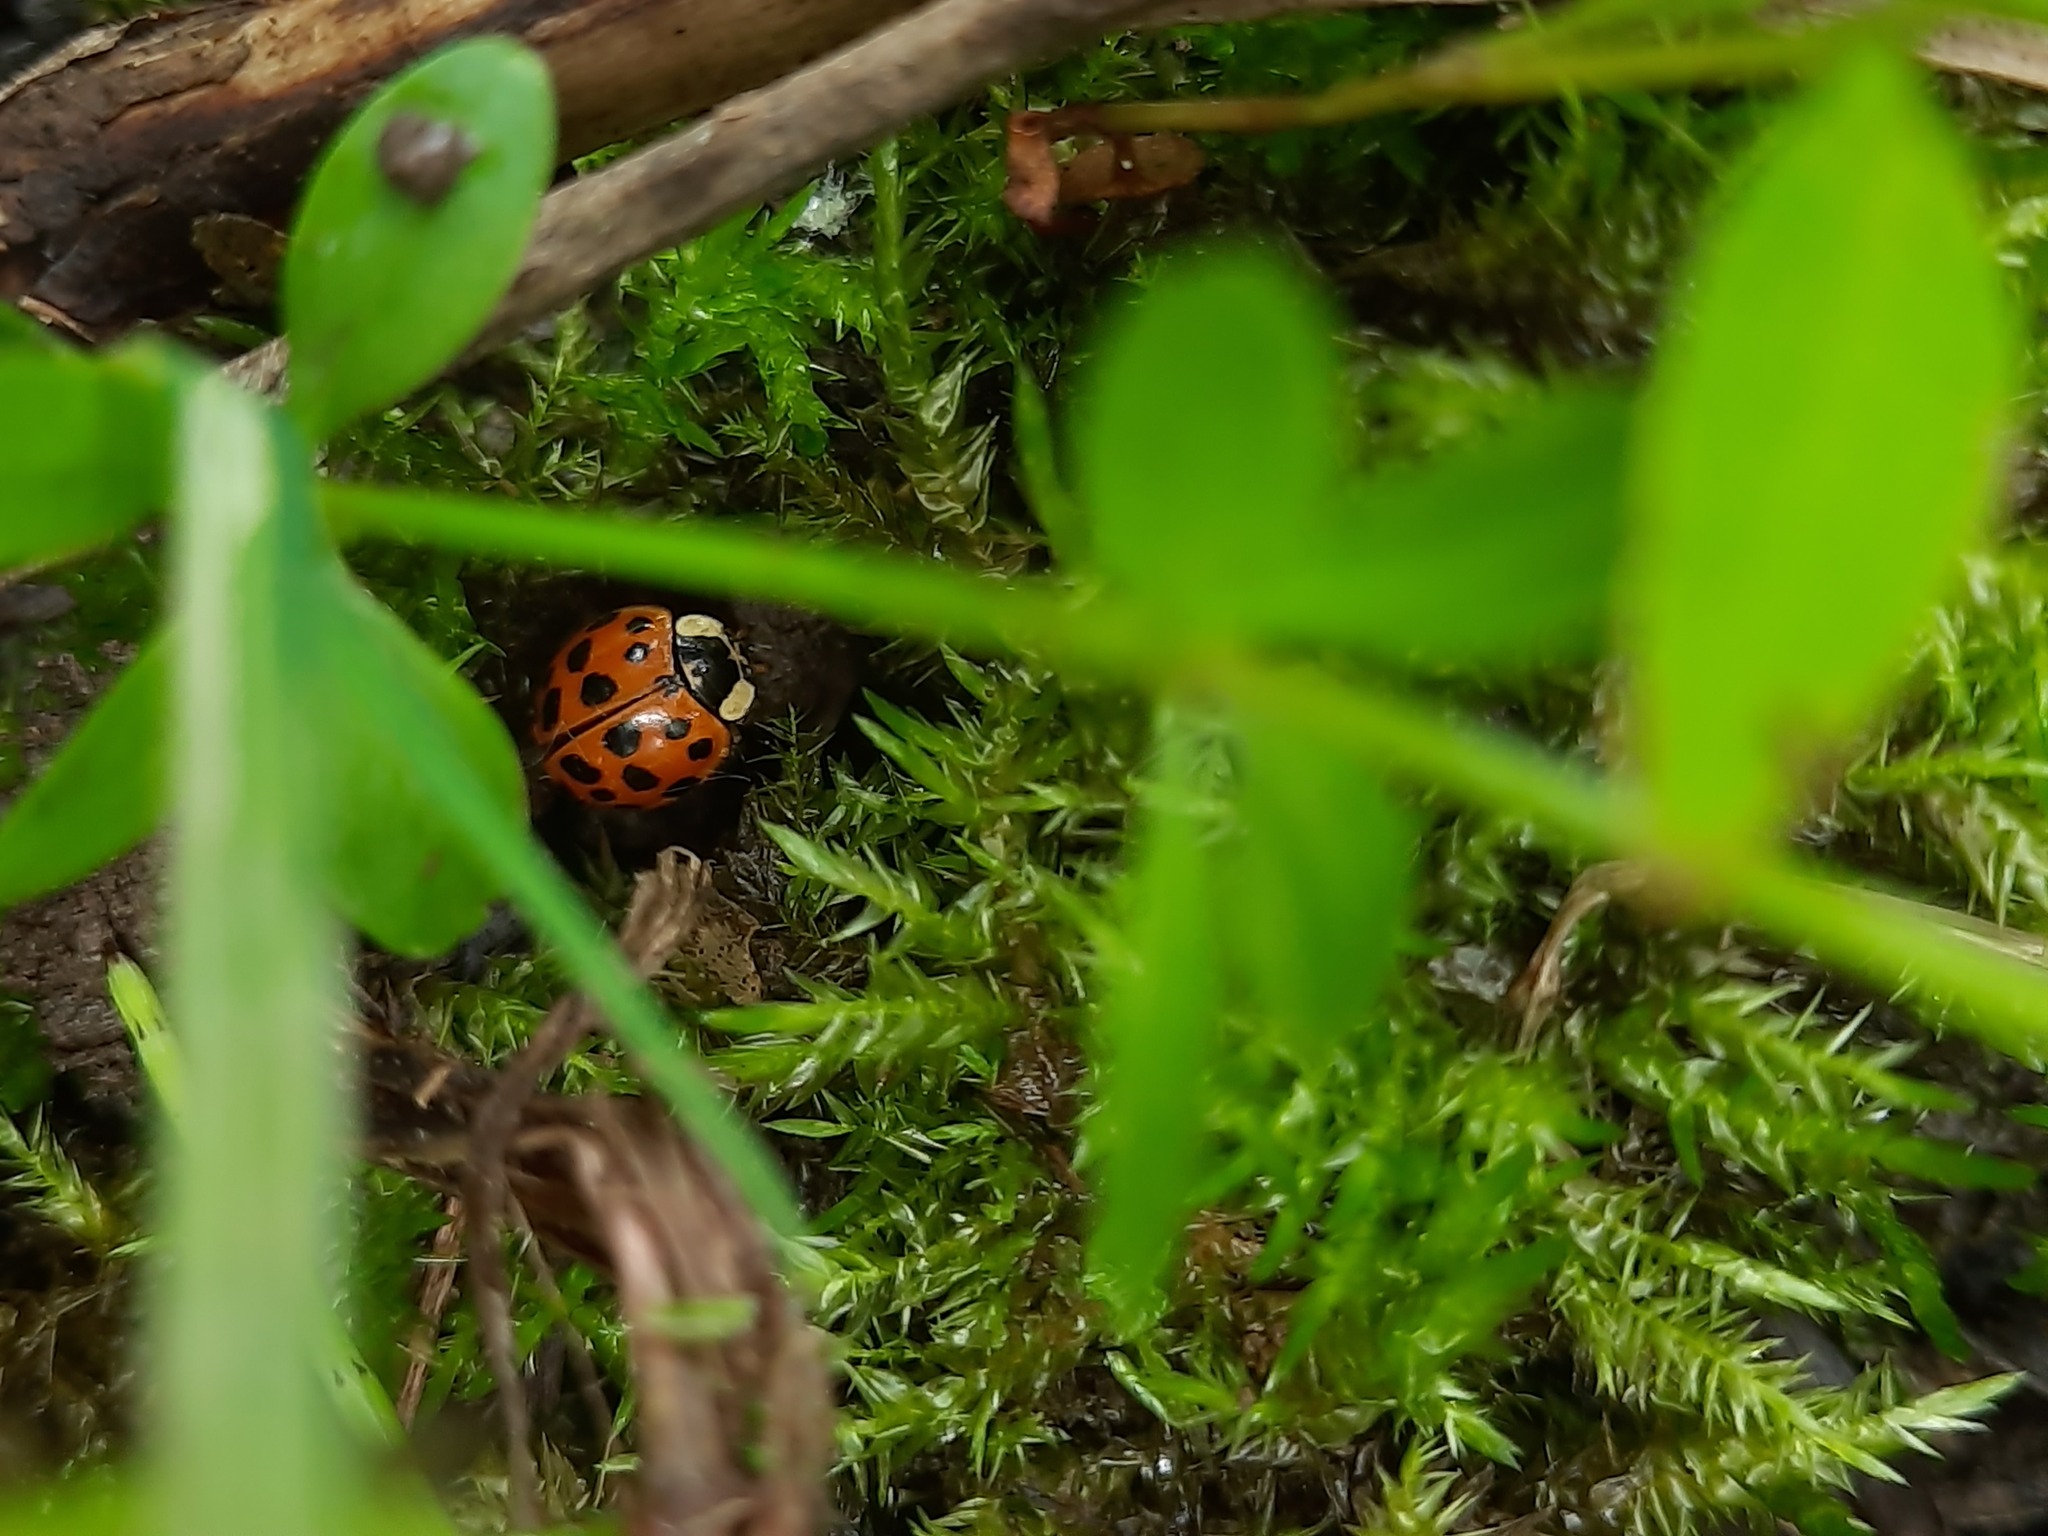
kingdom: Animalia
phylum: Arthropoda
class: Insecta
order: Coleoptera
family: Coccinellidae
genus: Harmonia
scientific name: Harmonia axyridis
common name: Harlequin ladybird
